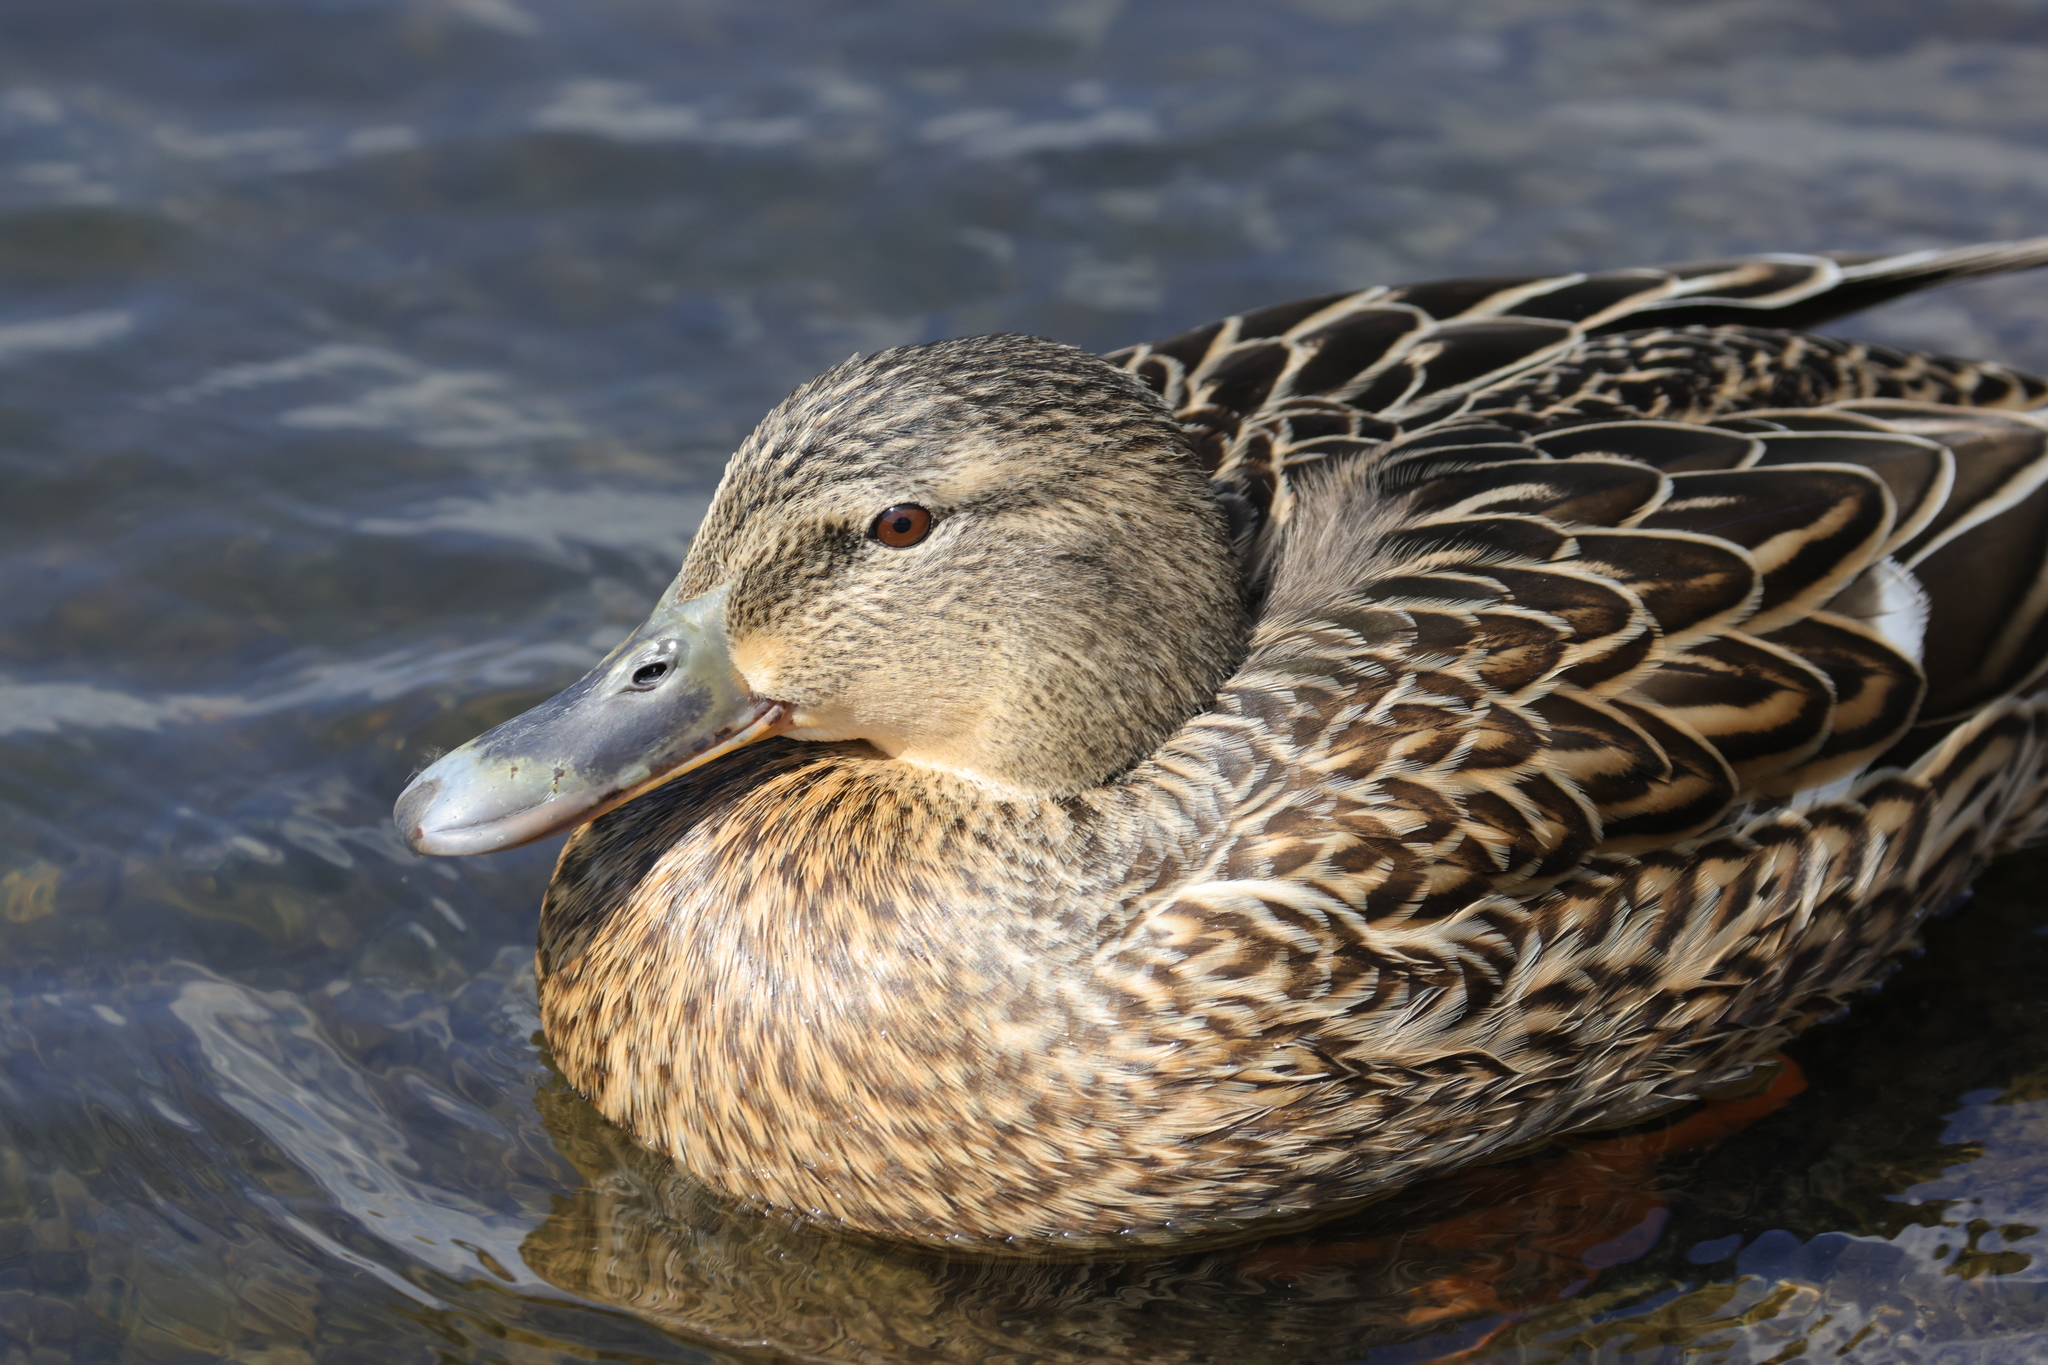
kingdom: Animalia
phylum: Chordata
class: Aves
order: Anseriformes
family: Anatidae
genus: Anas
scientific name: Anas platyrhynchos
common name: Mallard
